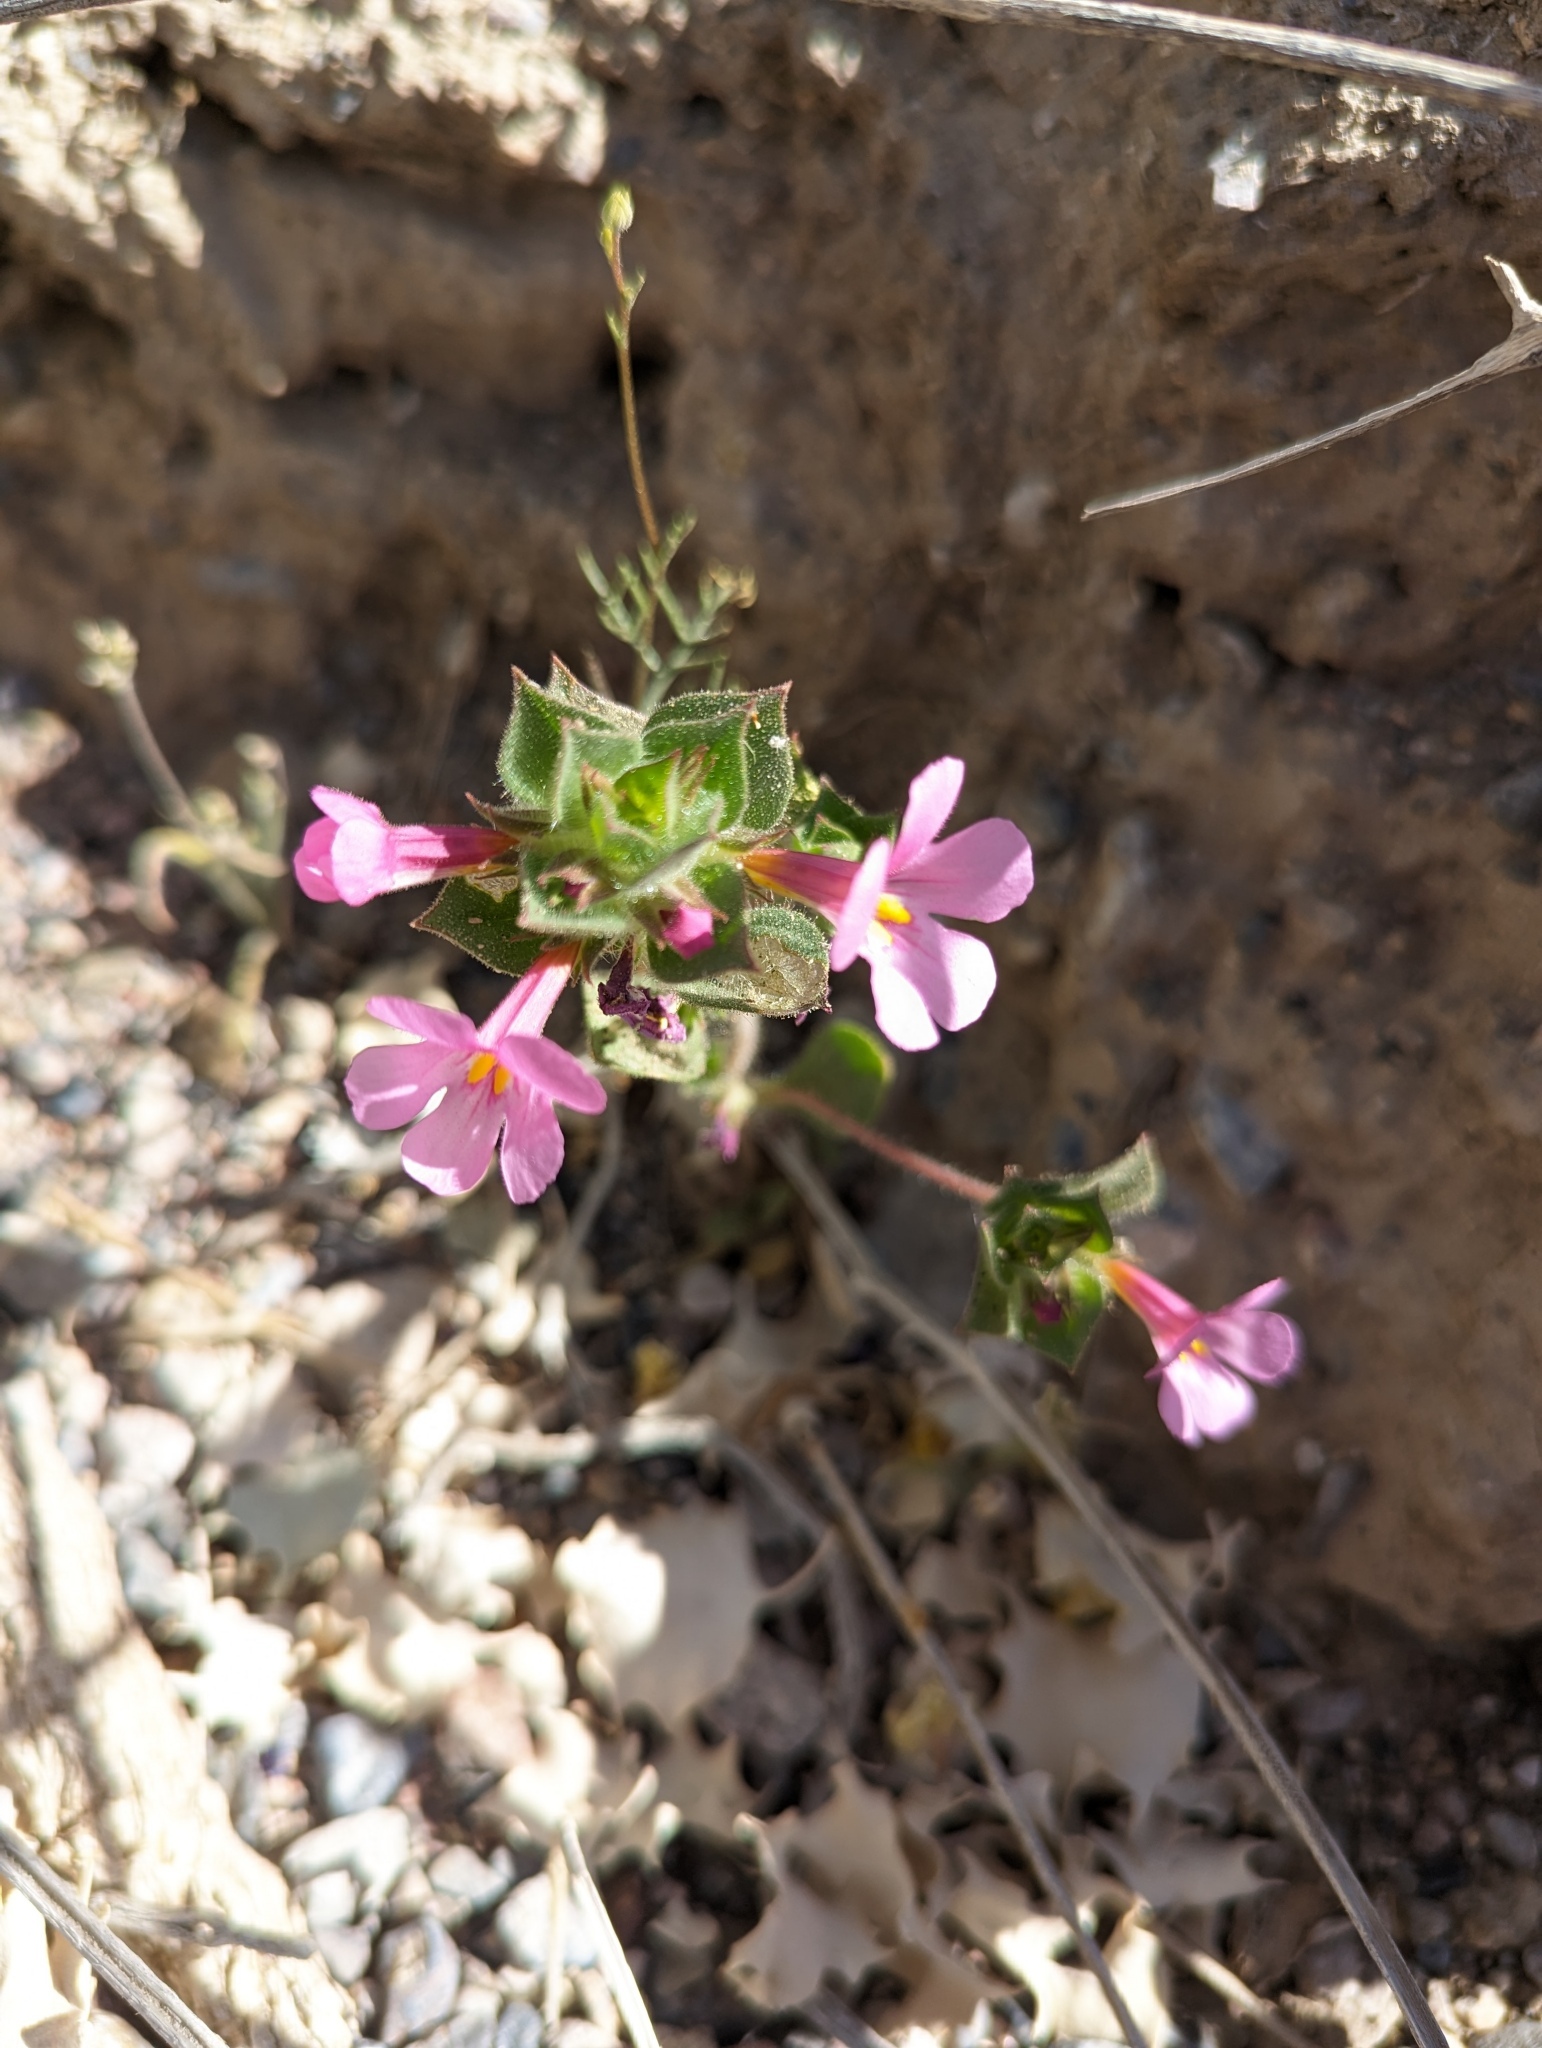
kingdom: Plantae
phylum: Tracheophyta
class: Magnoliopsida
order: Lamiales
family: Phrymaceae
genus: Diplacus
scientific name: Diplacus bigelovii
